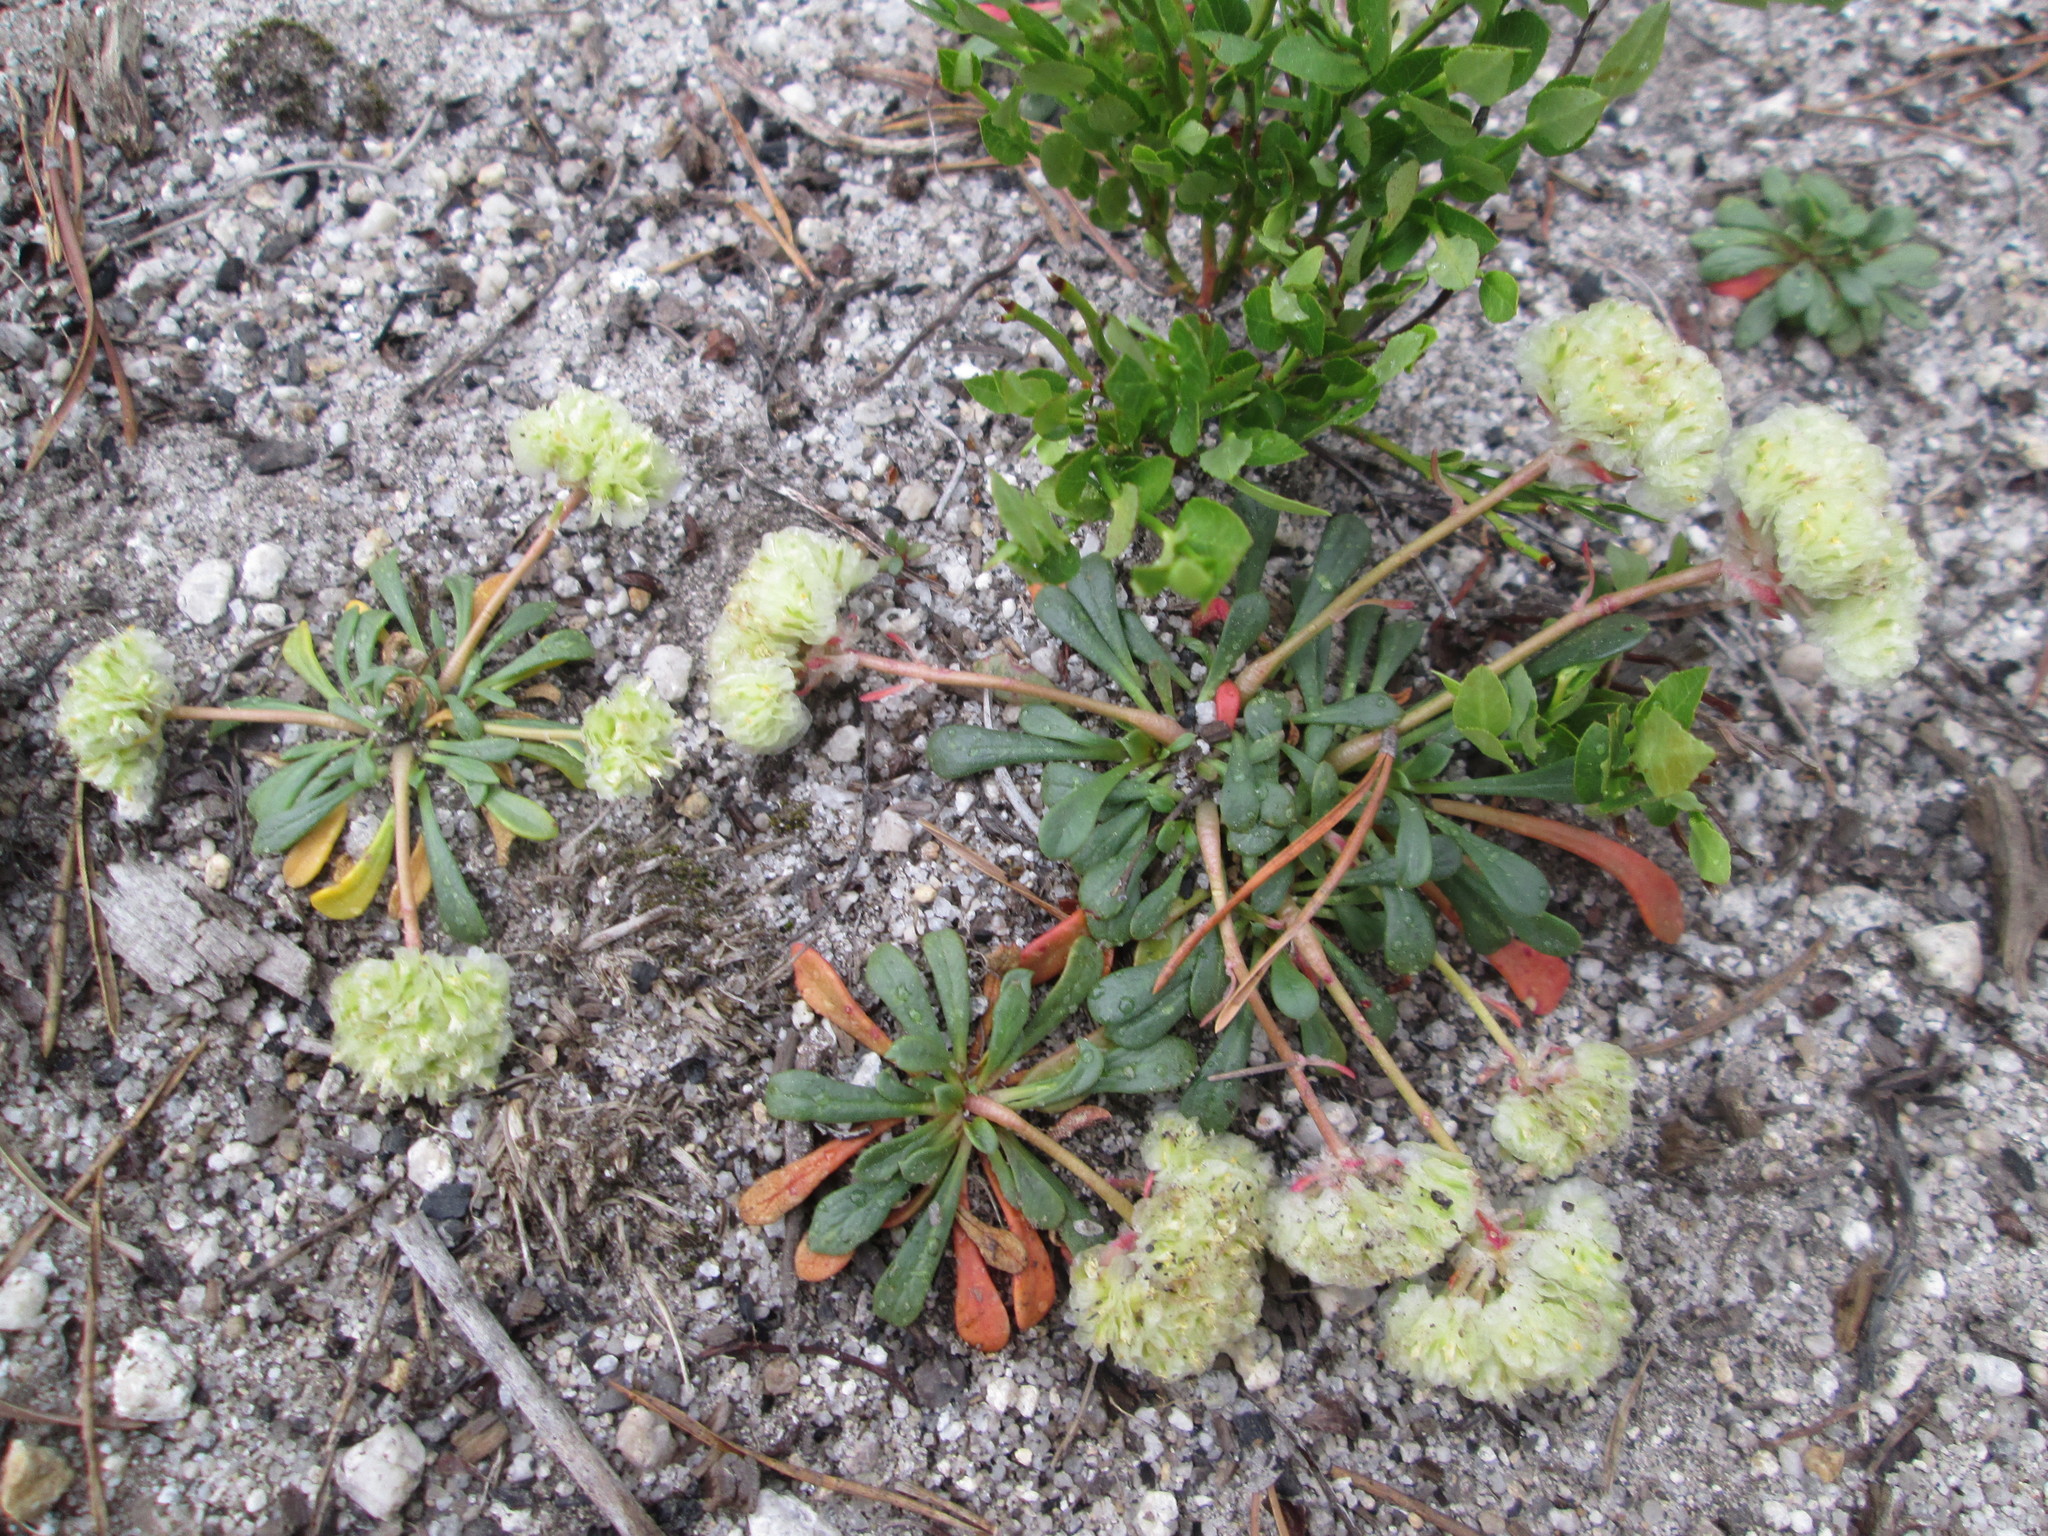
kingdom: Plantae
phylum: Tracheophyta
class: Magnoliopsida
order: Caryophyllales
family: Montiaceae
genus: Calyptridium
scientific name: Calyptridium umbellatum
